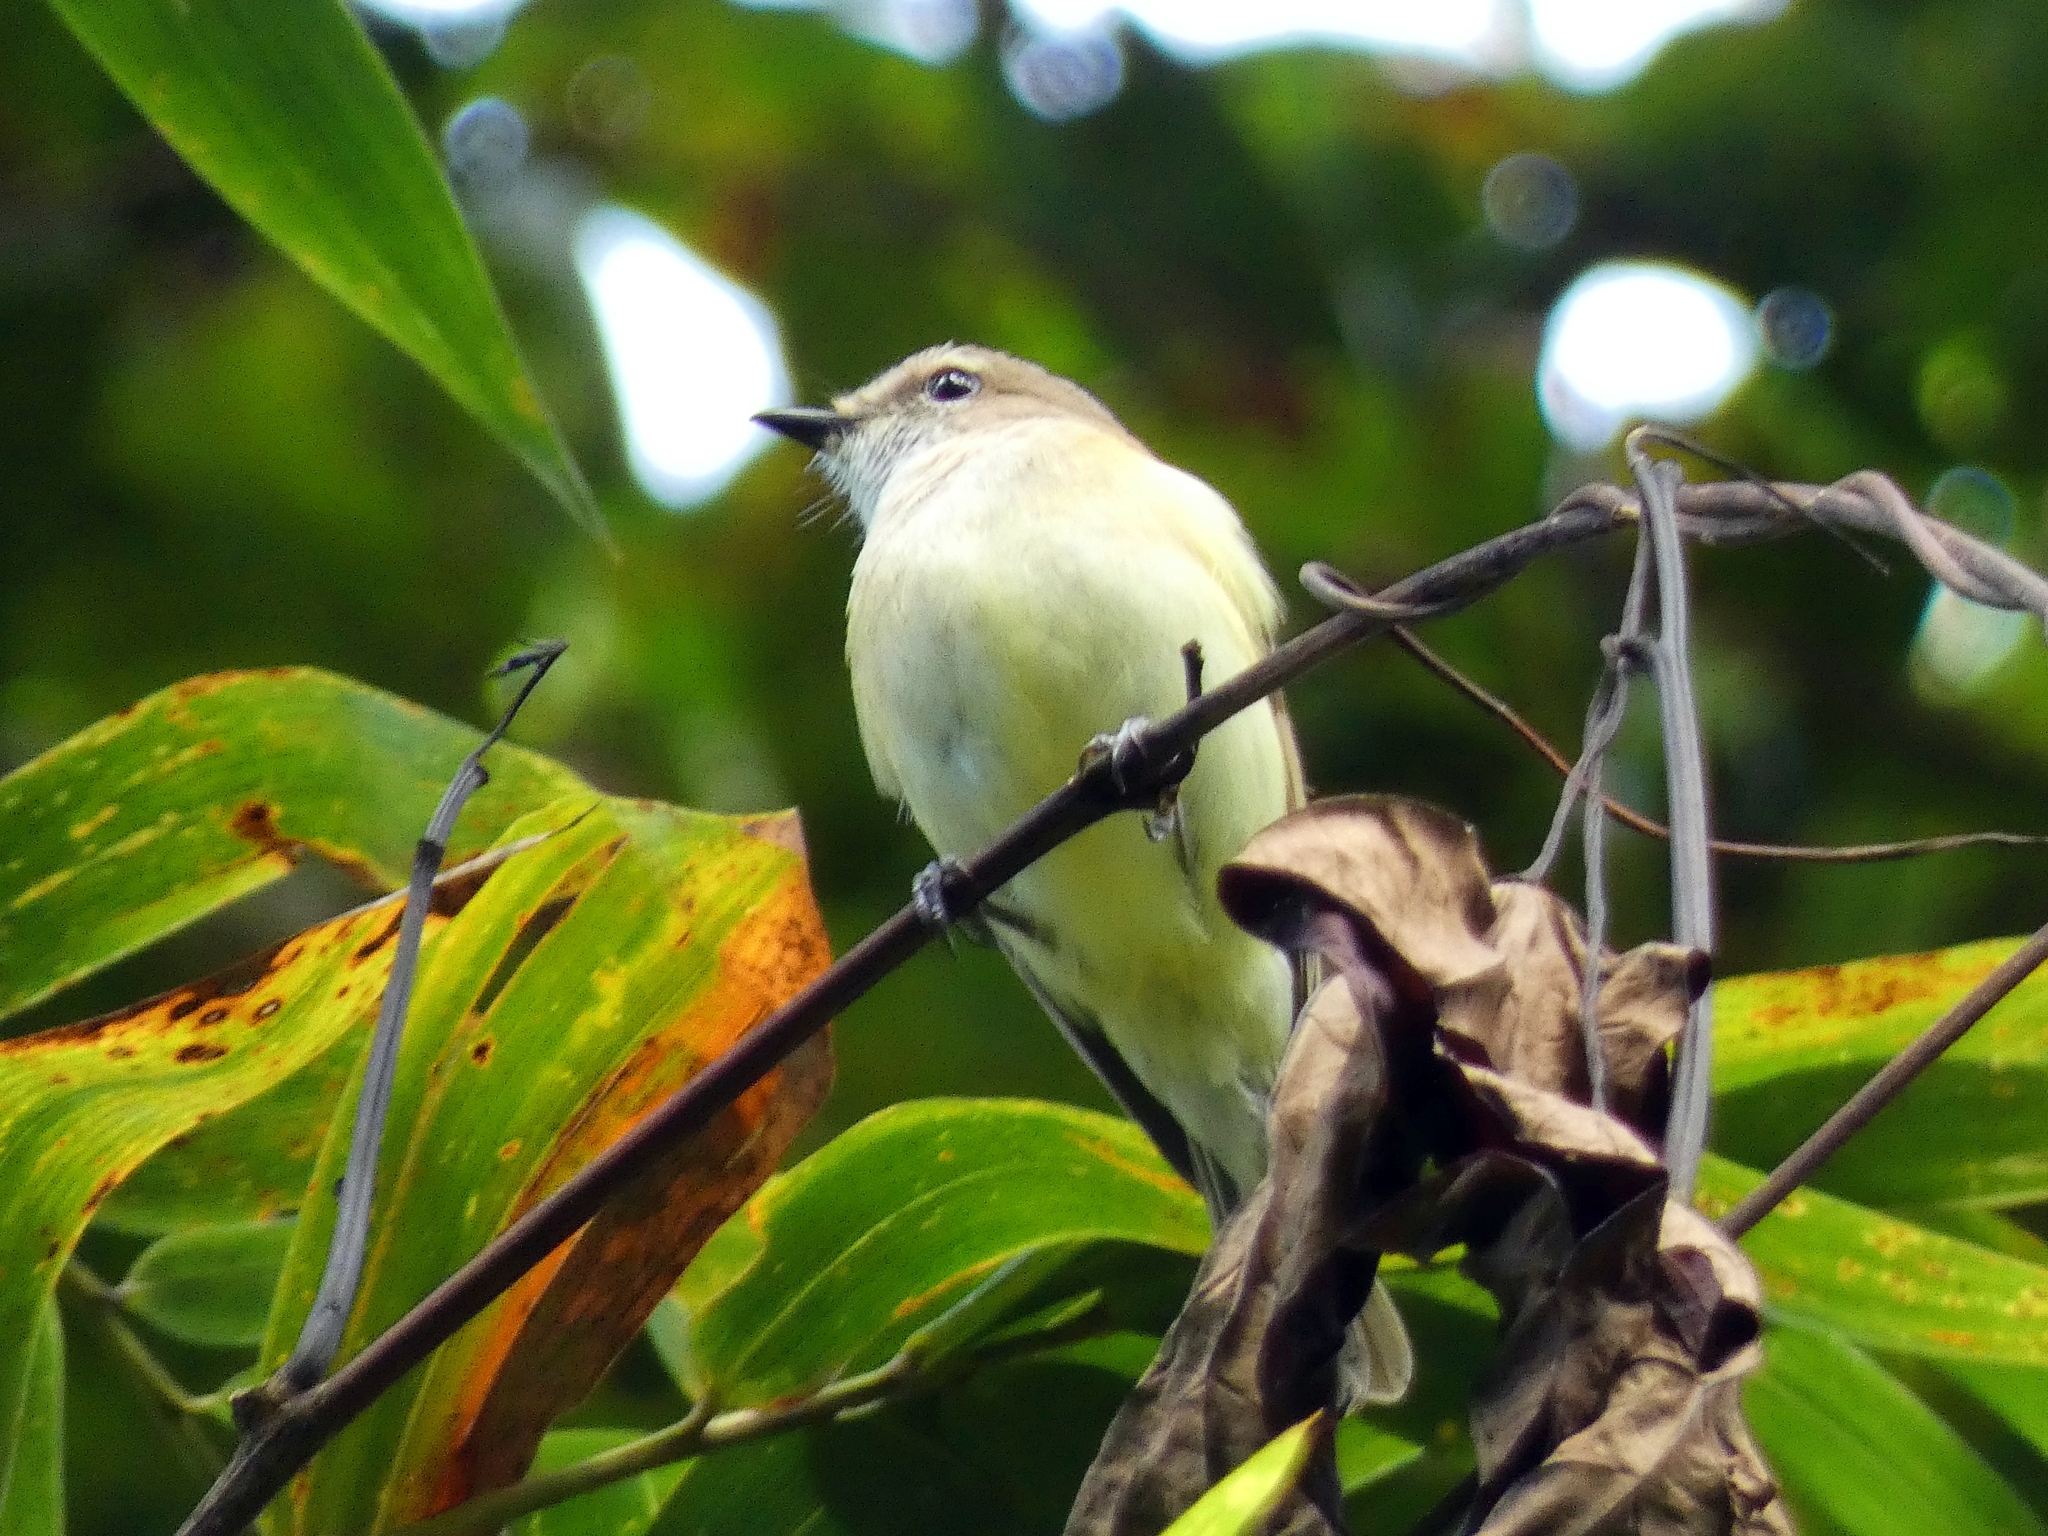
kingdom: Animalia
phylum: Chordata
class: Aves
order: Passeriformes
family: Petroicidae
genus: Microeca
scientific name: Microeca flavigaster
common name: Lemon-bellied flyrobin
